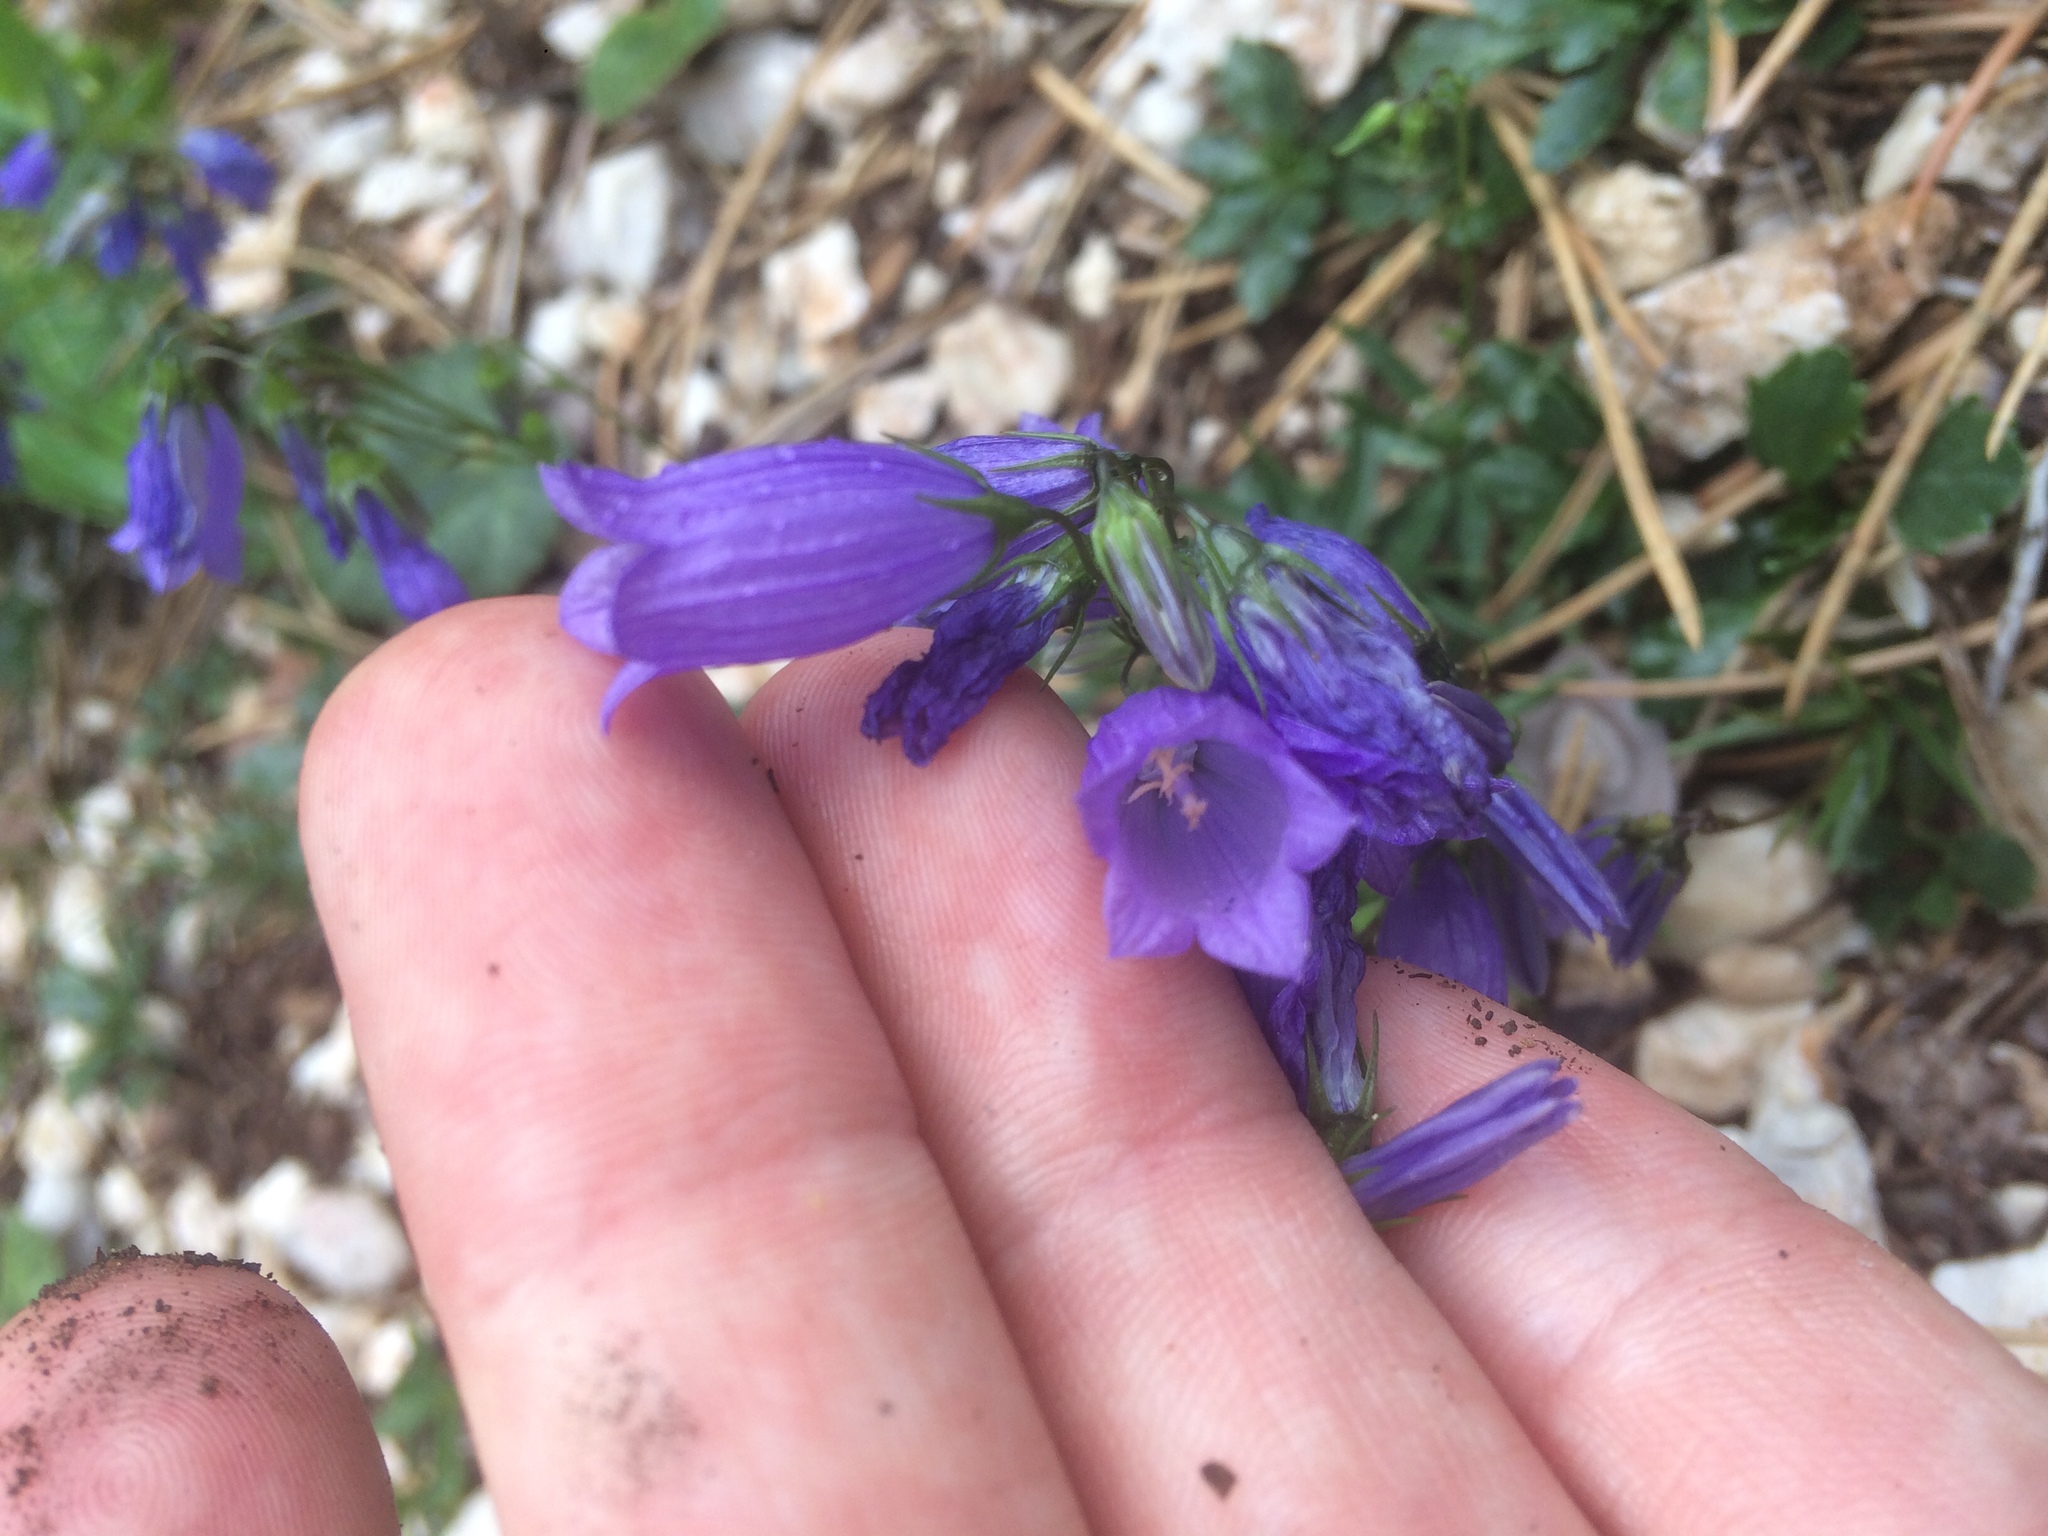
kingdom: Plantae
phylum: Tracheophyta
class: Magnoliopsida
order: Asterales
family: Campanulaceae
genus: Campanula
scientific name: Campanula cespitosa
